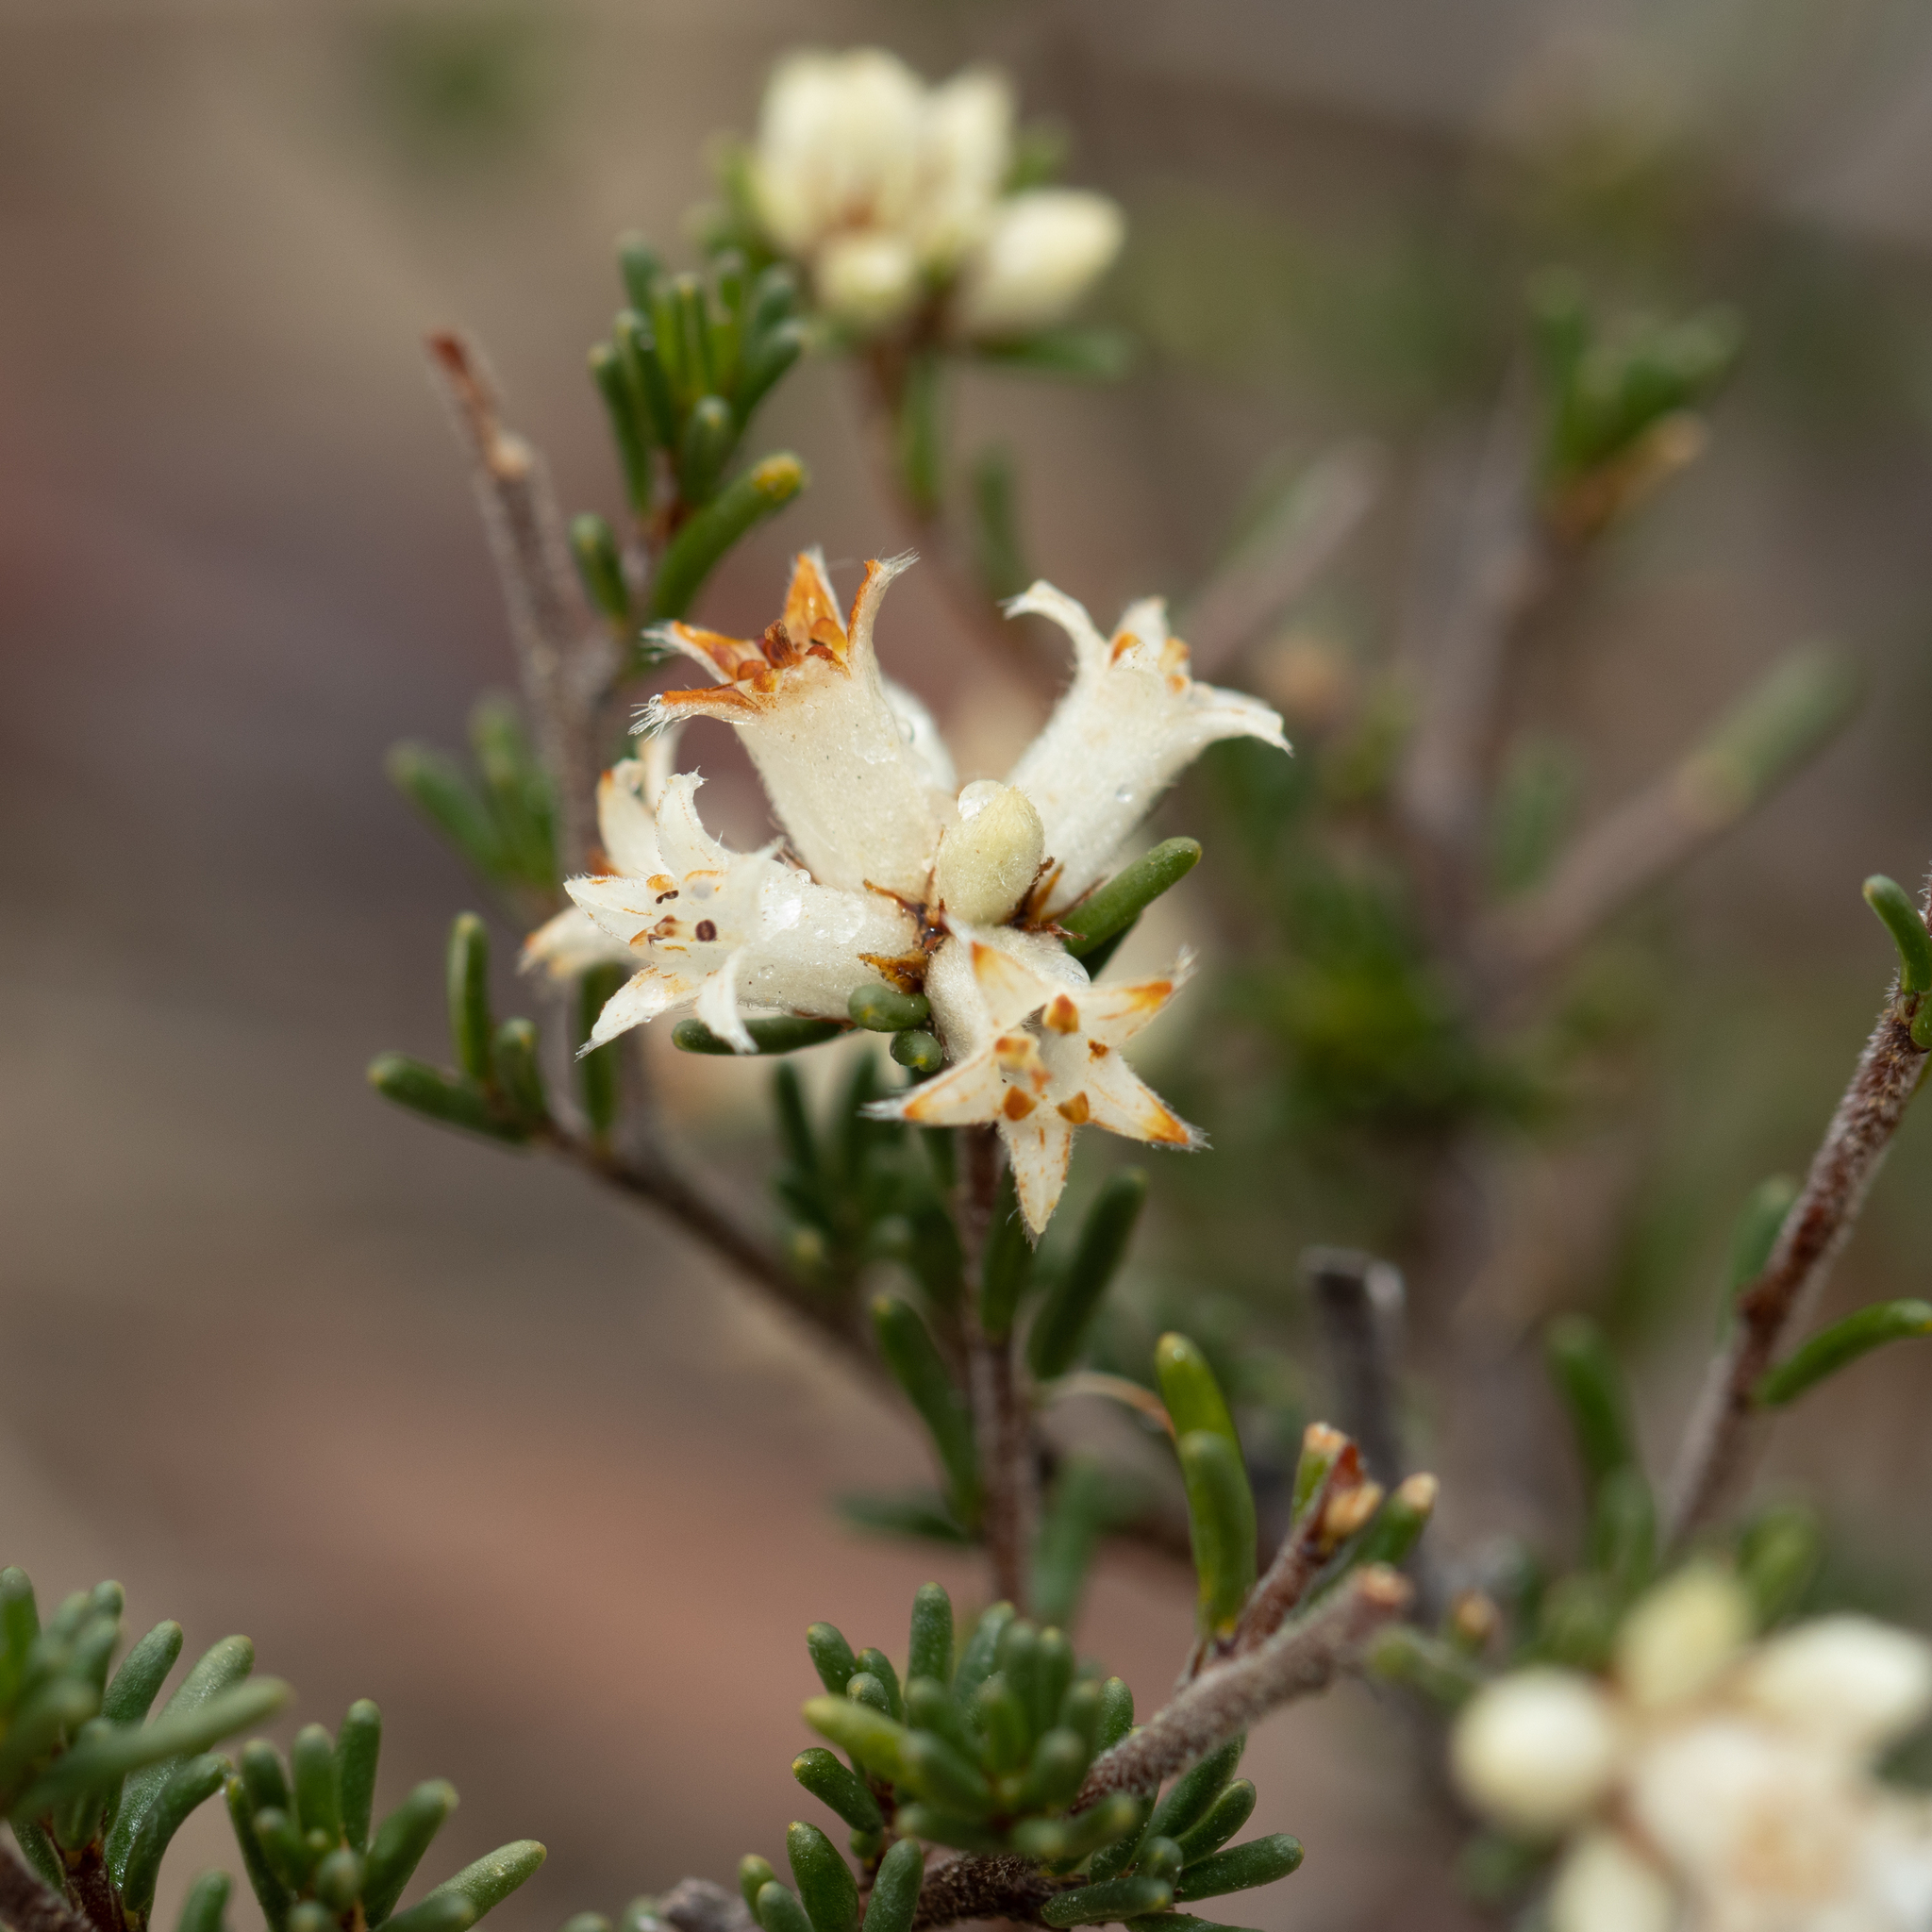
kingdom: Plantae
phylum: Tracheophyta
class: Magnoliopsida
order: Rosales
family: Rhamnaceae
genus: Cryptandra
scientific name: Cryptandra hispidula
